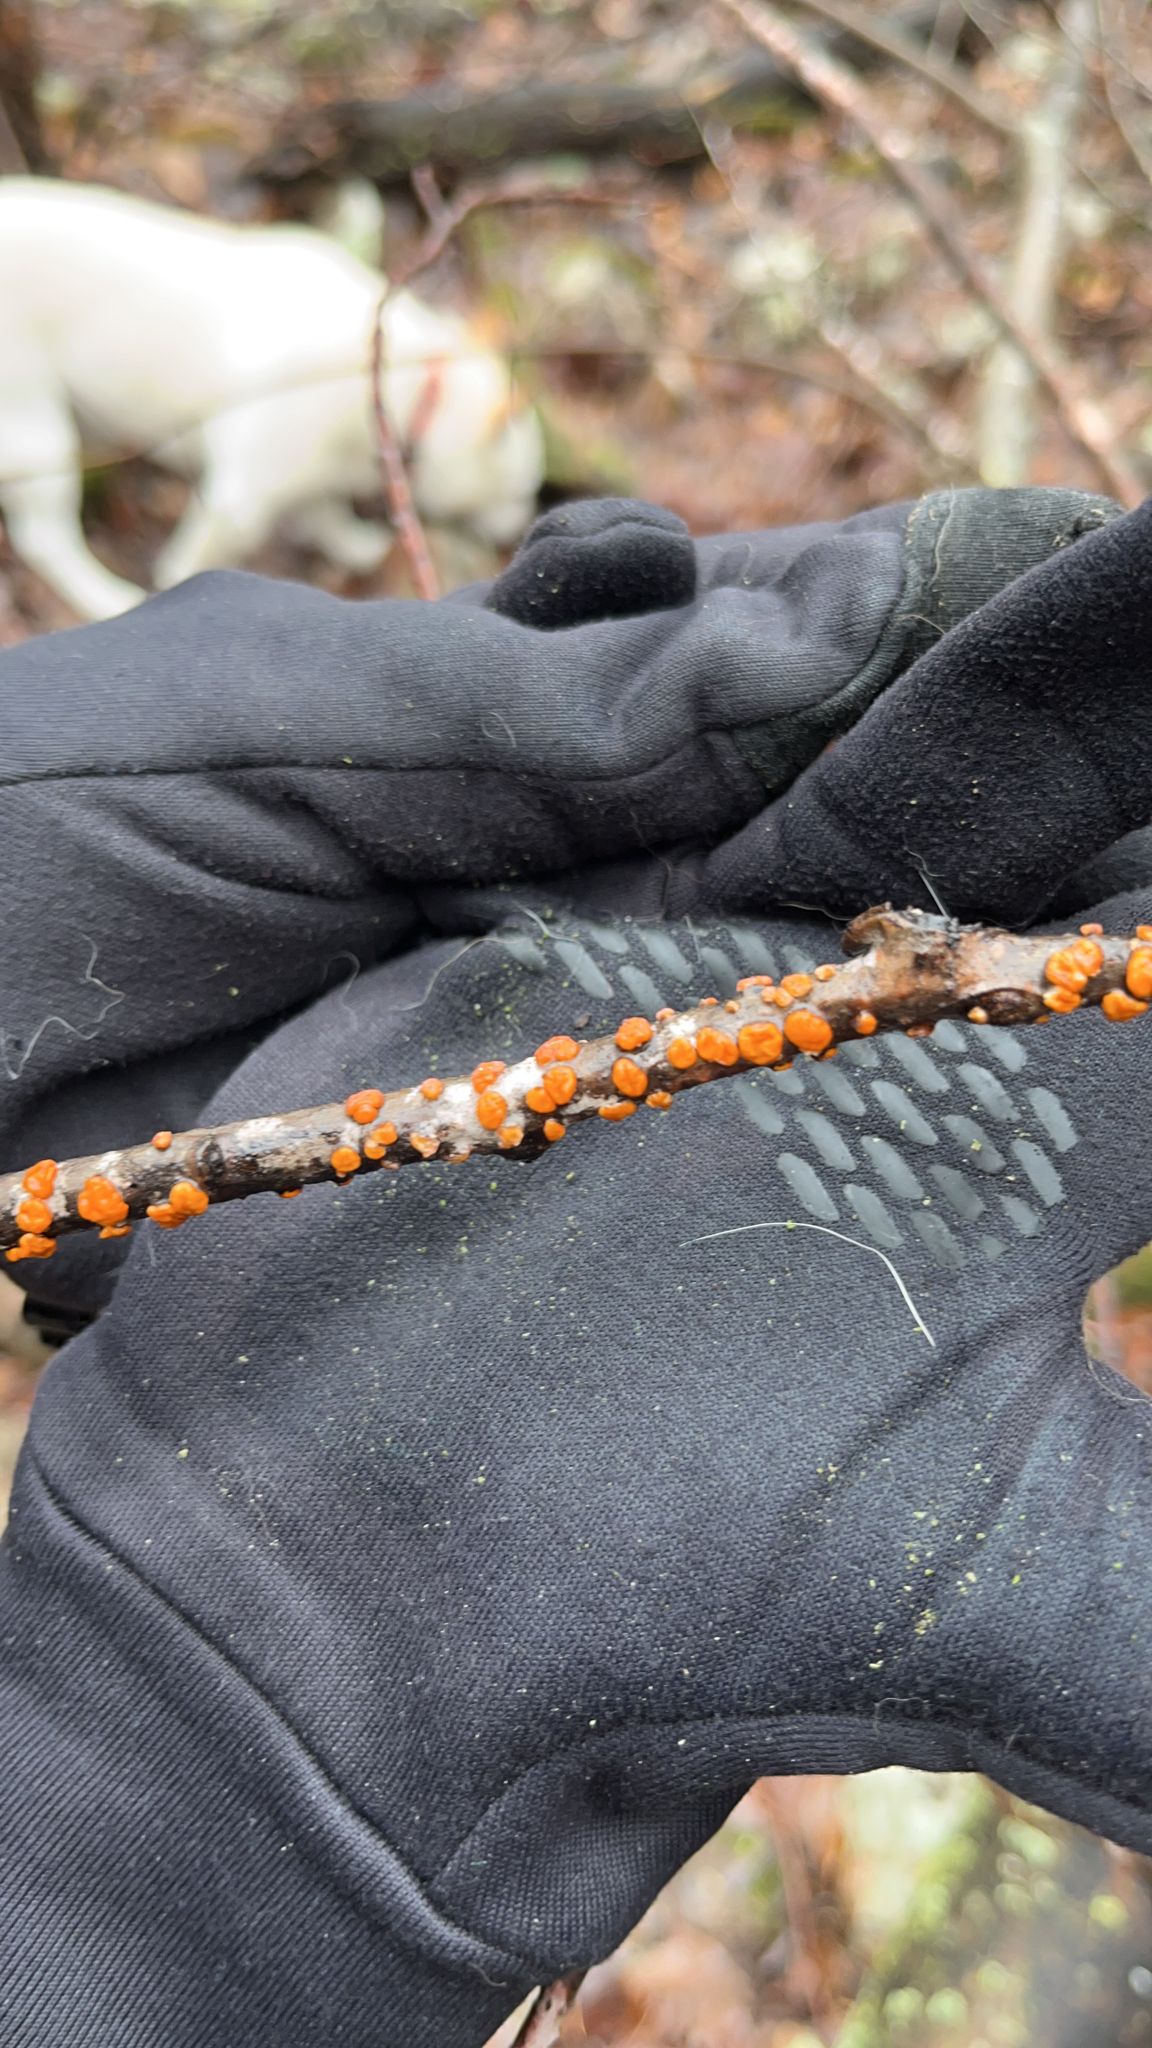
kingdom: Fungi
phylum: Ascomycota
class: Sordariomycetes
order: Hypocreales
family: Nectriaceae
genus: Nectria
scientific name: Nectria cinnabarina
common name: Coral spot
